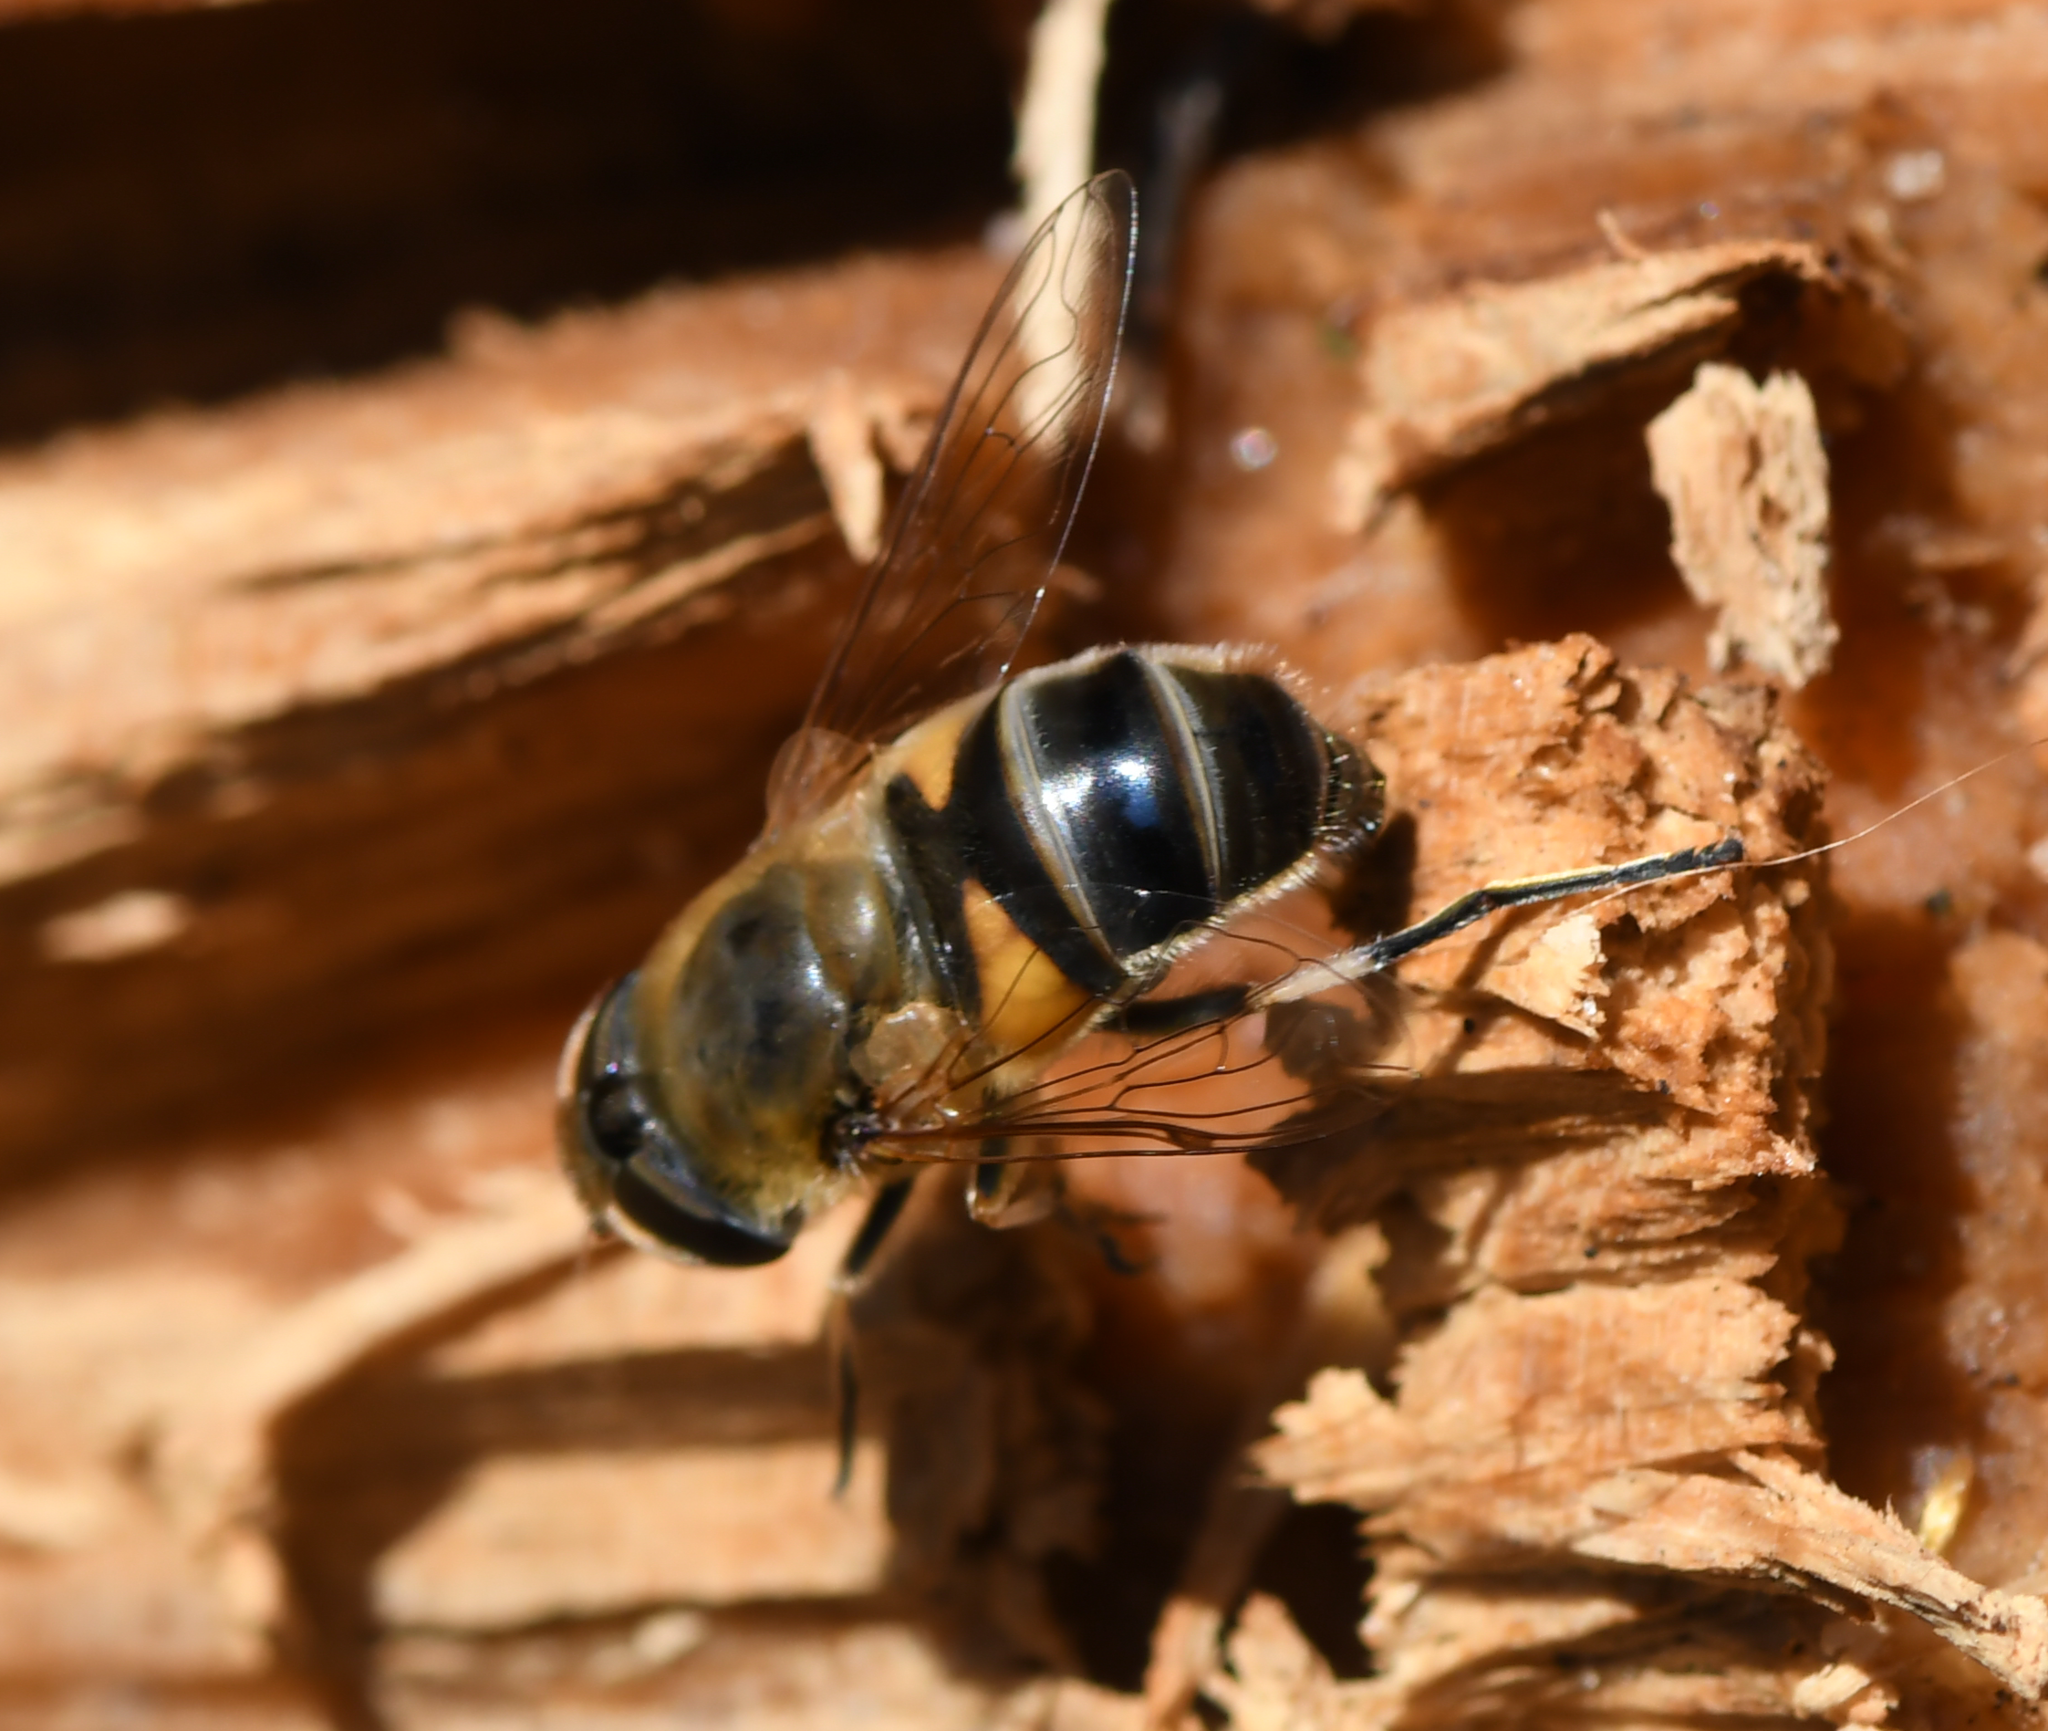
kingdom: Animalia
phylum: Arthropoda
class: Insecta
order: Diptera
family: Syrphidae
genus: Eristalis
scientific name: Eristalis pertinax
